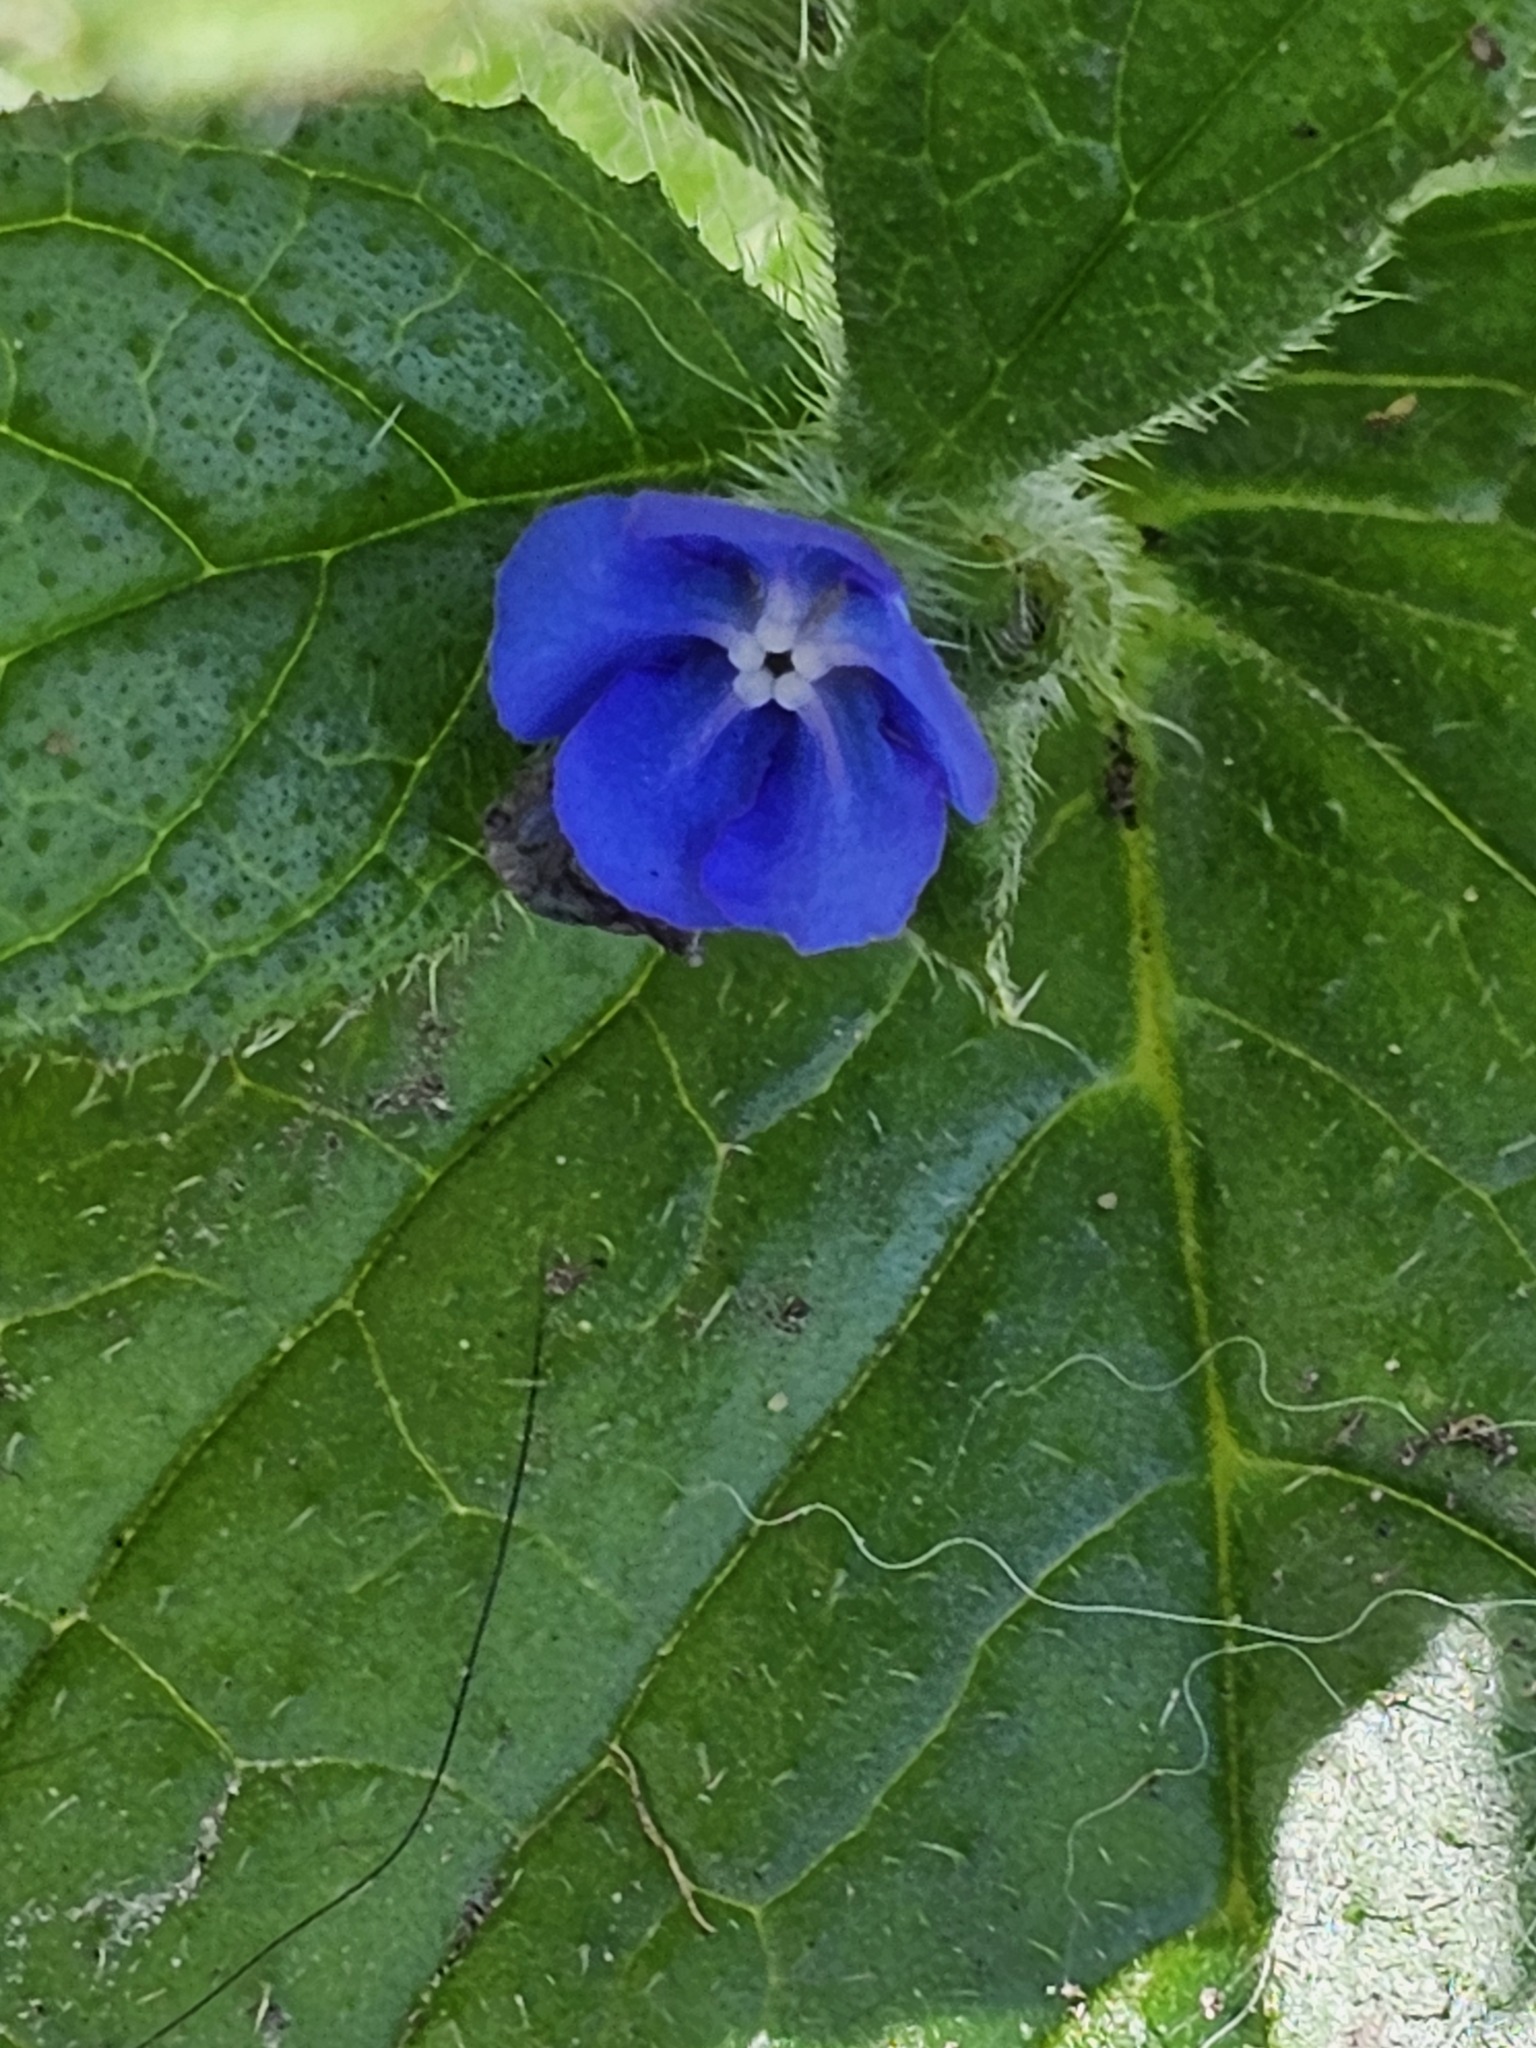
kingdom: Plantae
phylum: Tracheophyta
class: Magnoliopsida
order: Boraginales
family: Boraginaceae
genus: Pentaglottis
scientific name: Pentaglottis sempervirens
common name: Green alkanet
